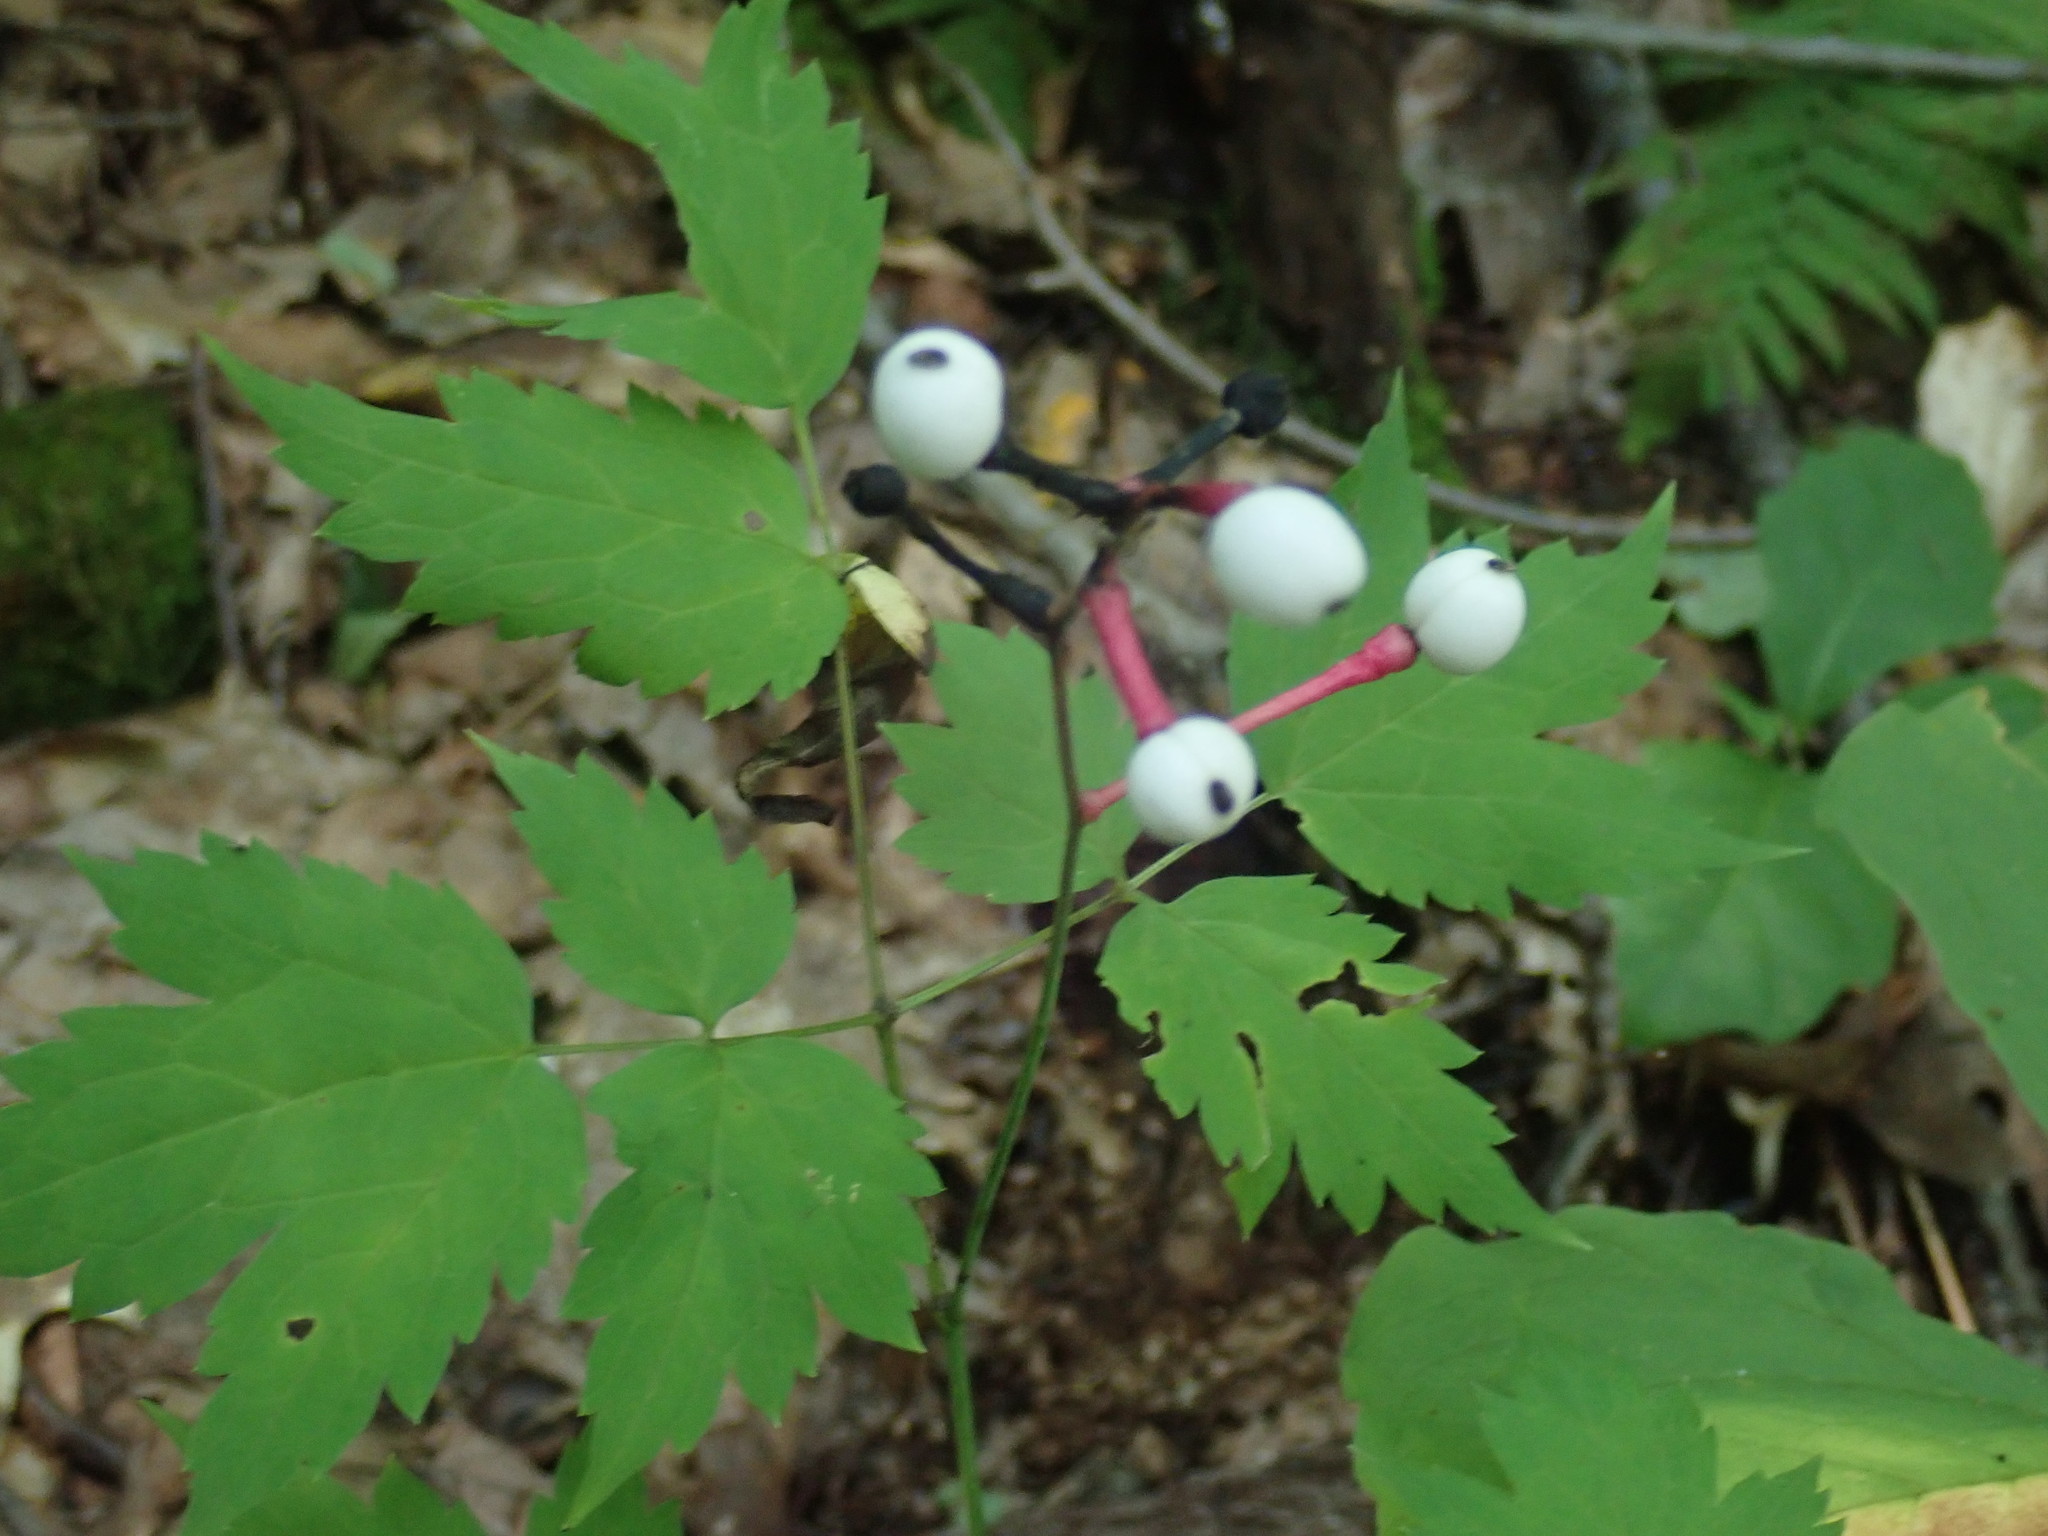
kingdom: Plantae
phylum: Tracheophyta
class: Magnoliopsida
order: Ranunculales
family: Ranunculaceae
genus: Actaea
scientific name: Actaea pachypoda
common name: Doll's-eyes
